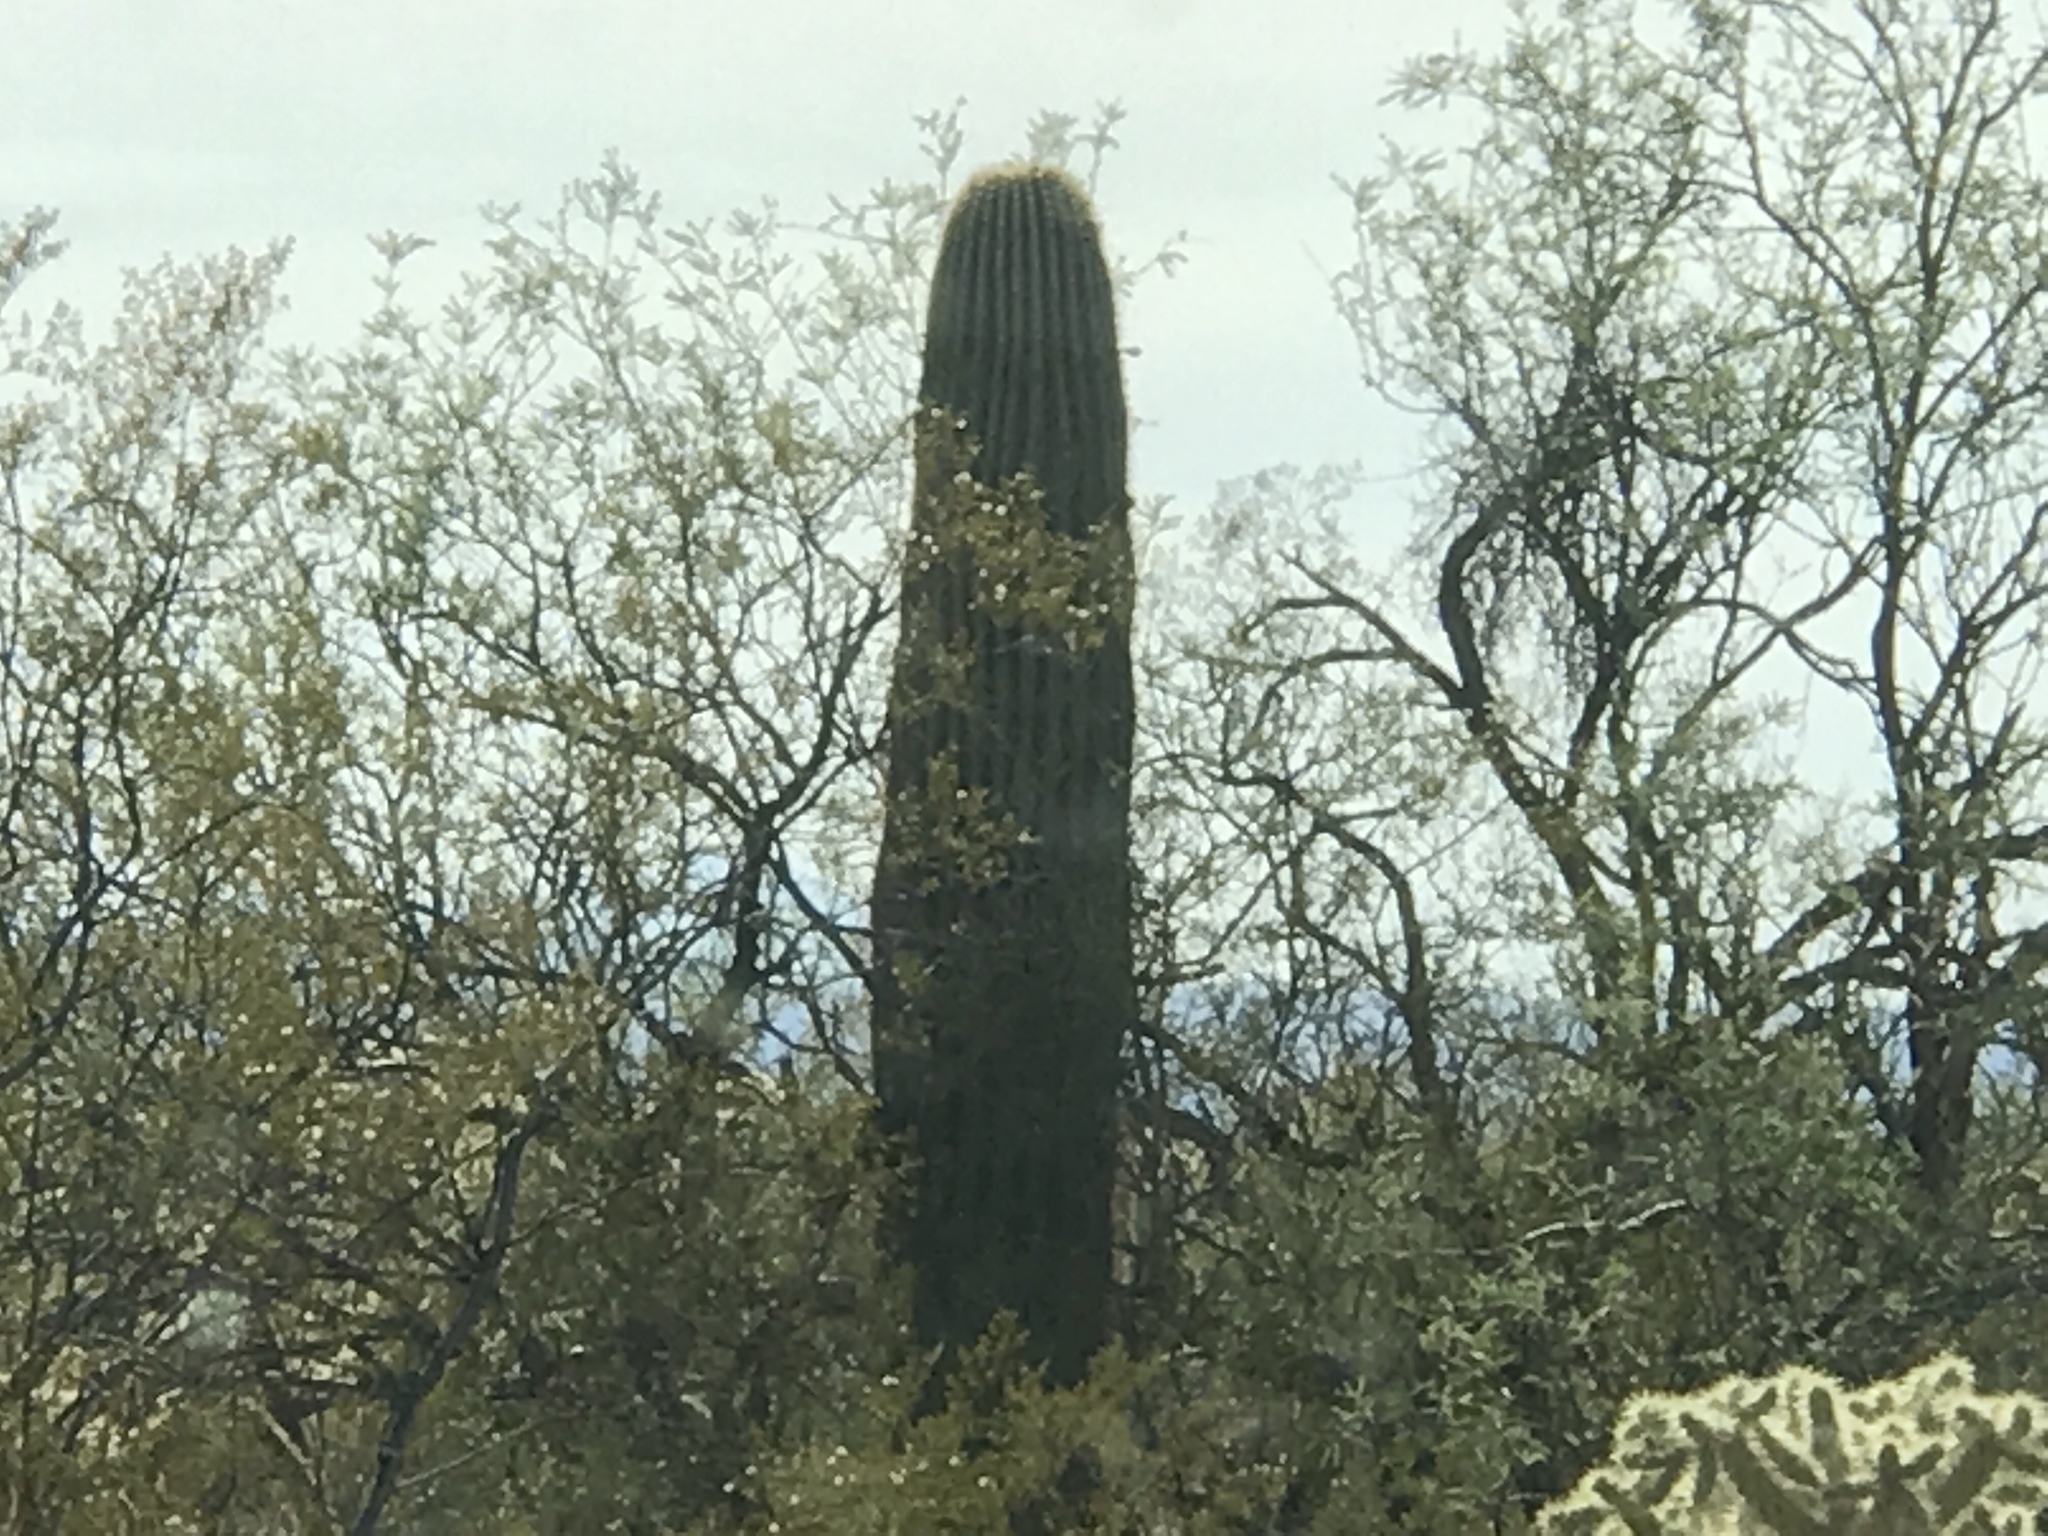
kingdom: Plantae
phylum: Tracheophyta
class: Magnoliopsida
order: Caryophyllales
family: Cactaceae
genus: Carnegiea
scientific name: Carnegiea gigantea
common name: Saguaro
